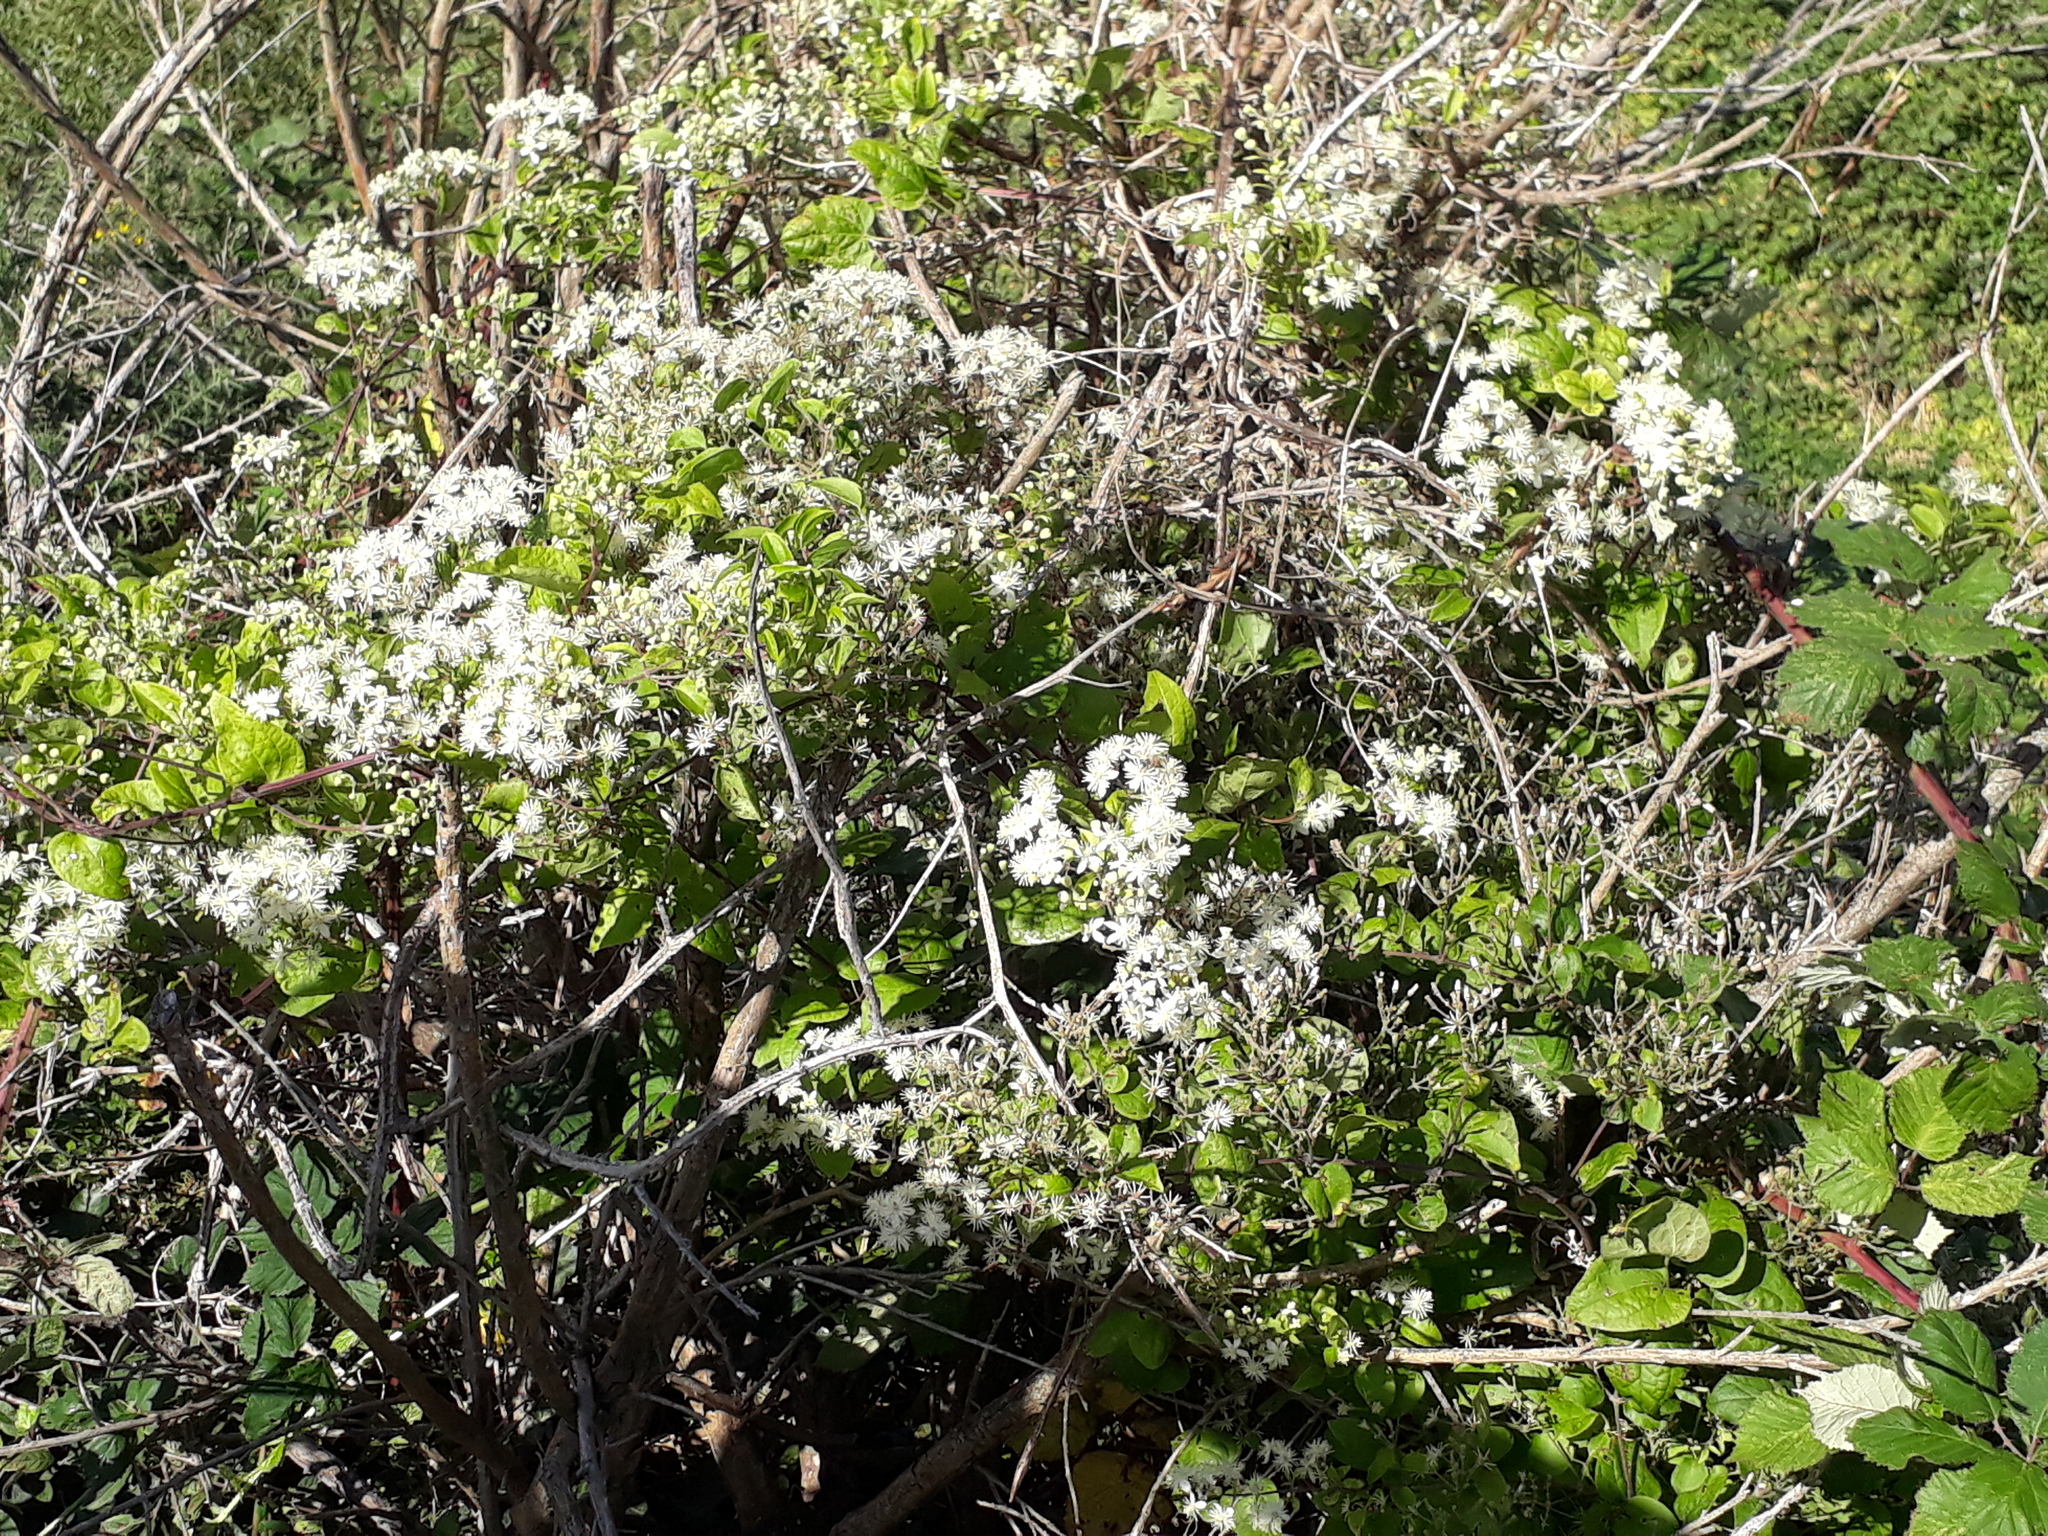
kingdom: Plantae
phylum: Tracheophyta
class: Magnoliopsida
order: Ranunculales
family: Ranunculaceae
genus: Clematis
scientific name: Clematis vitalba
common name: Evergreen clematis
